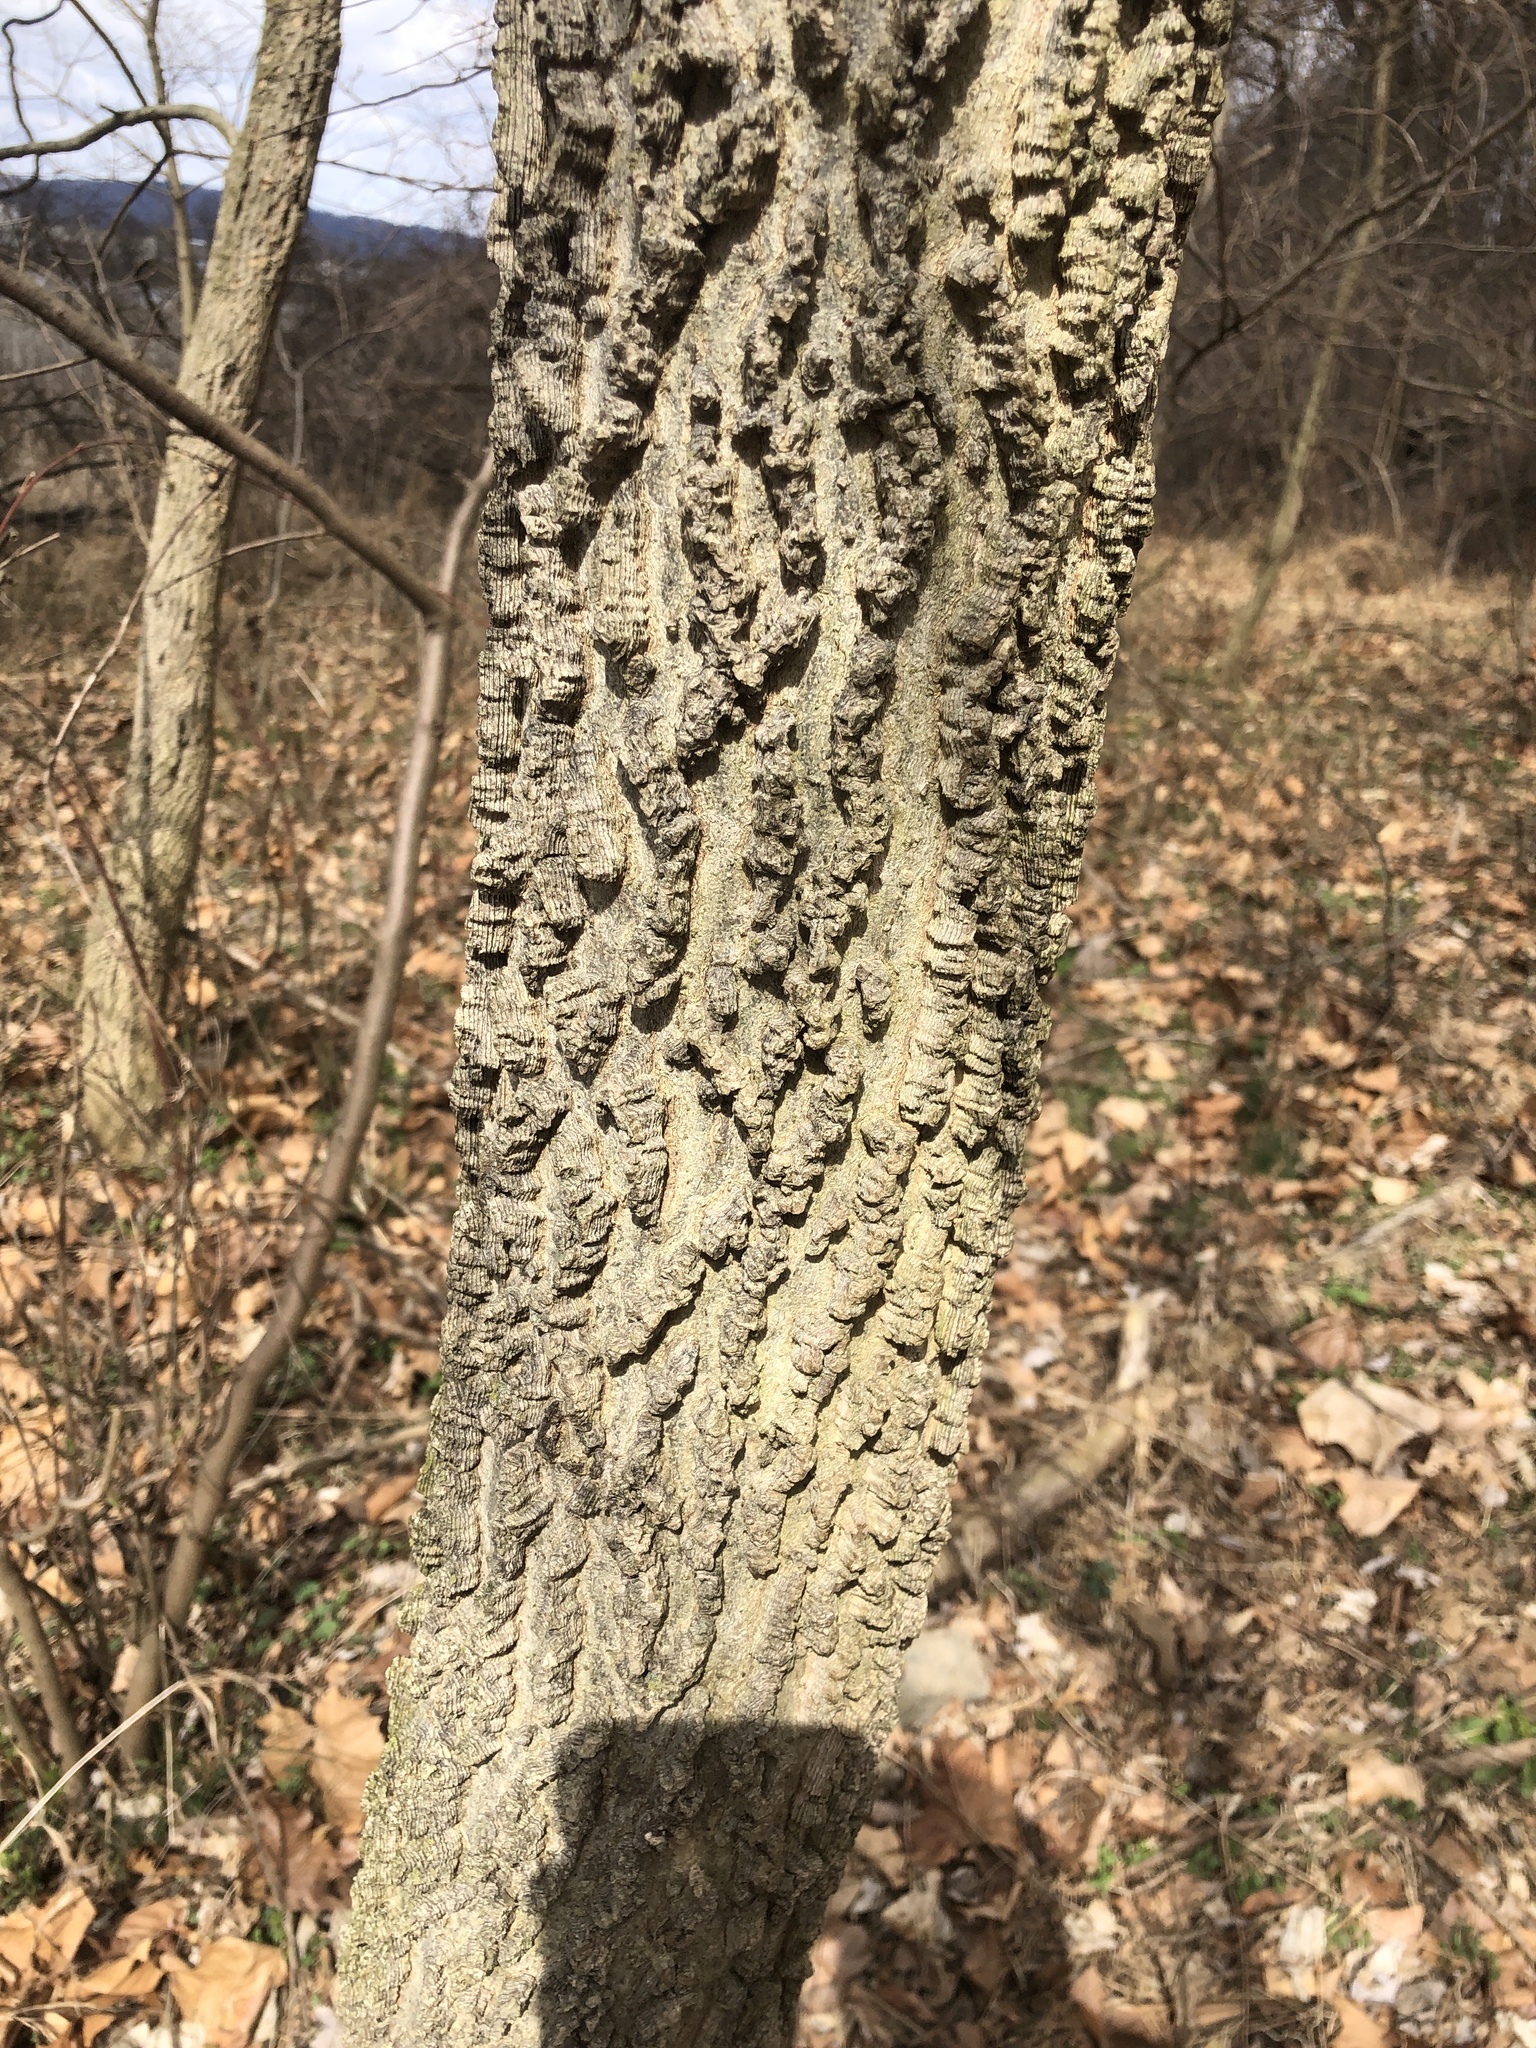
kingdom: Plantae
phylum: Tracheophyta
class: Magnoliopsida
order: Rosales
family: Cannabaceae
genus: Celtis
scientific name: Celtis occidentalis
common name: Common hackberry
